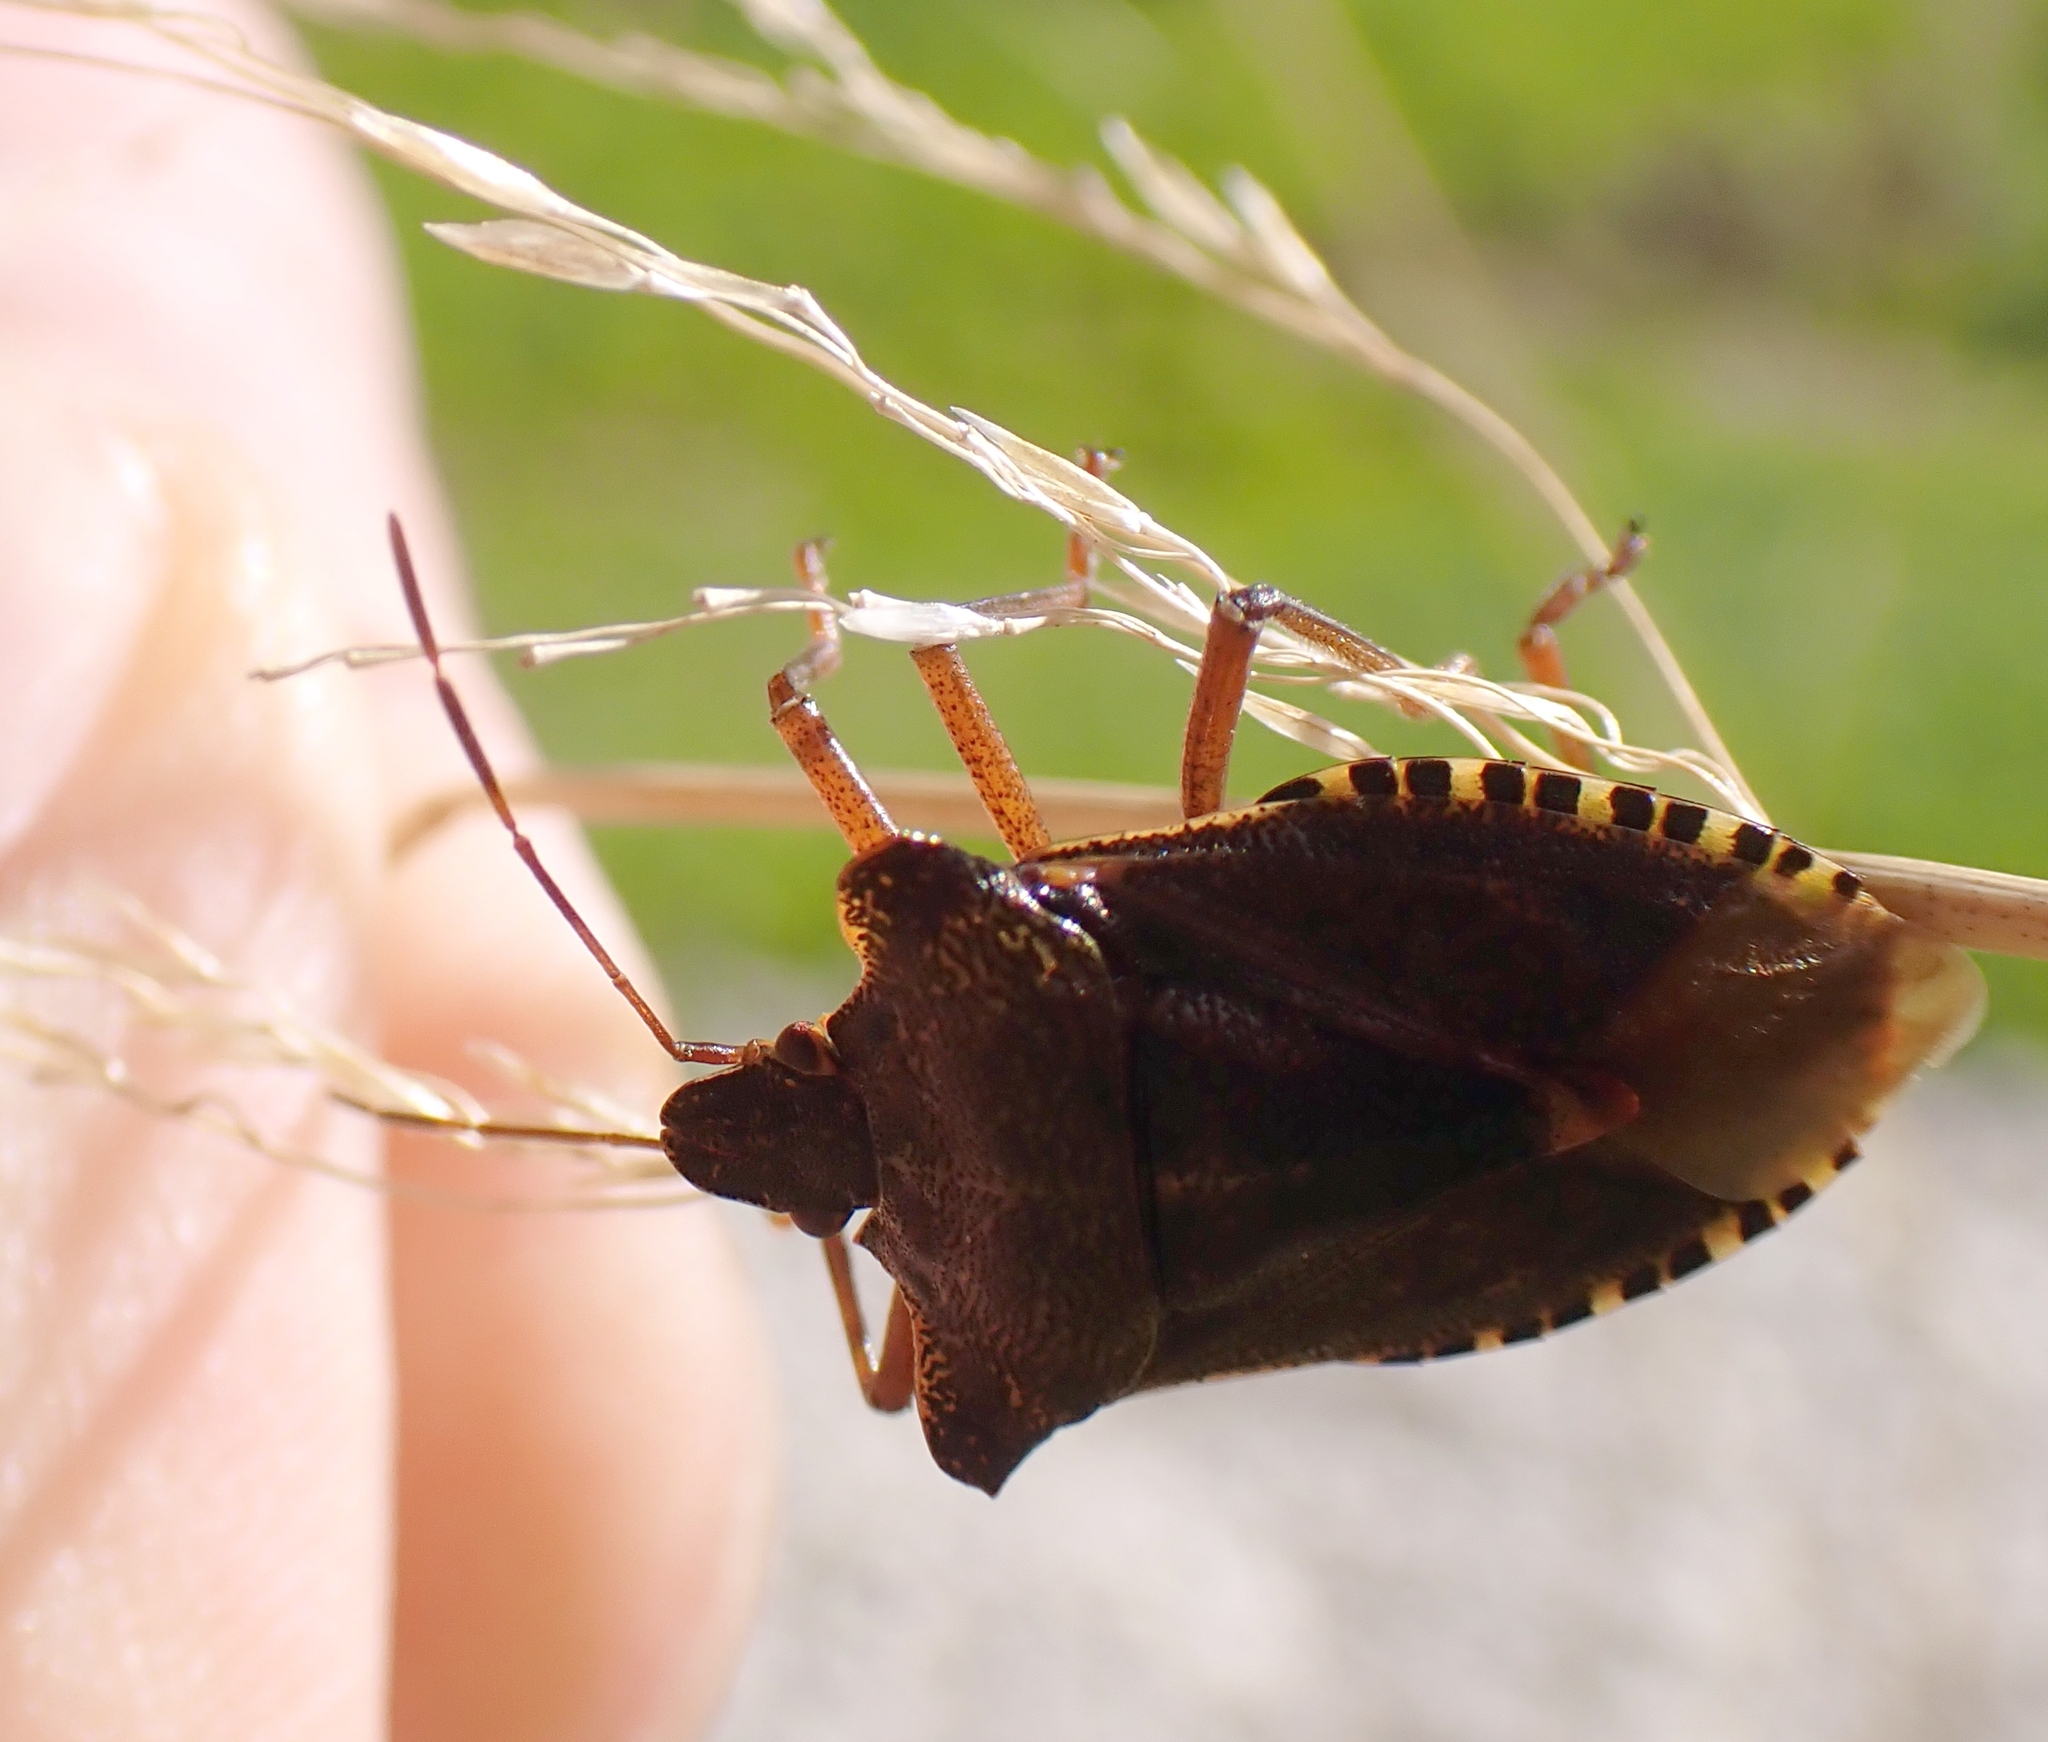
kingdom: Animalia
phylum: Arthropoda
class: Insecta
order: Hemiptera
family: Pentatomidae
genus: Pentatoma
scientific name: Pentatoma rufipes
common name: Forest bug
